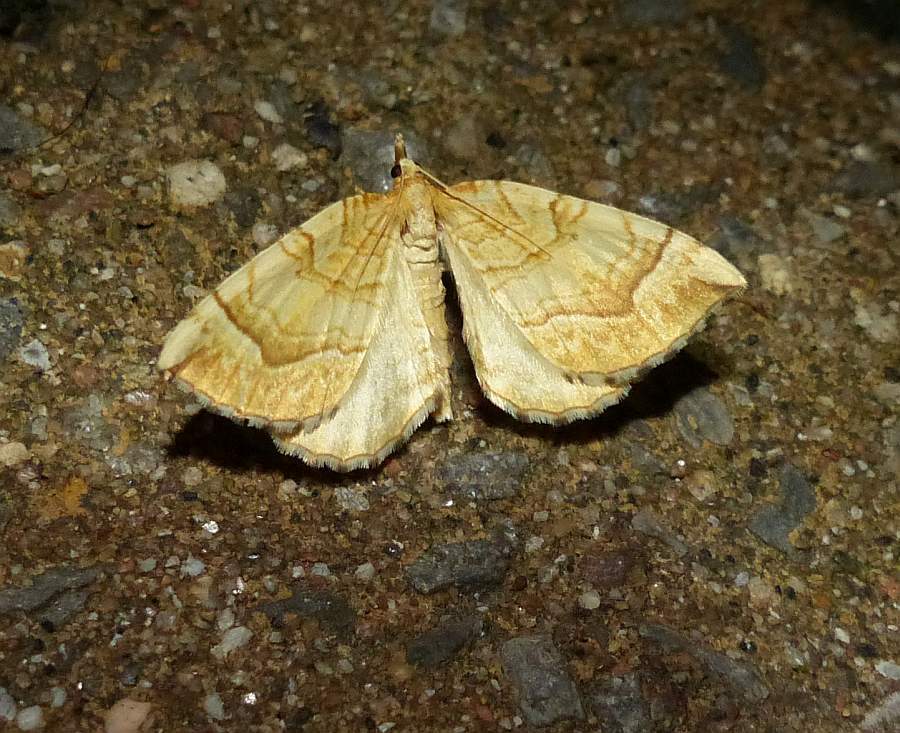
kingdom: Animalia
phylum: Arthropoda
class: Insecta
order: Lepidoptera
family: Geometridae
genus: Eulithis
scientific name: Eulithis
